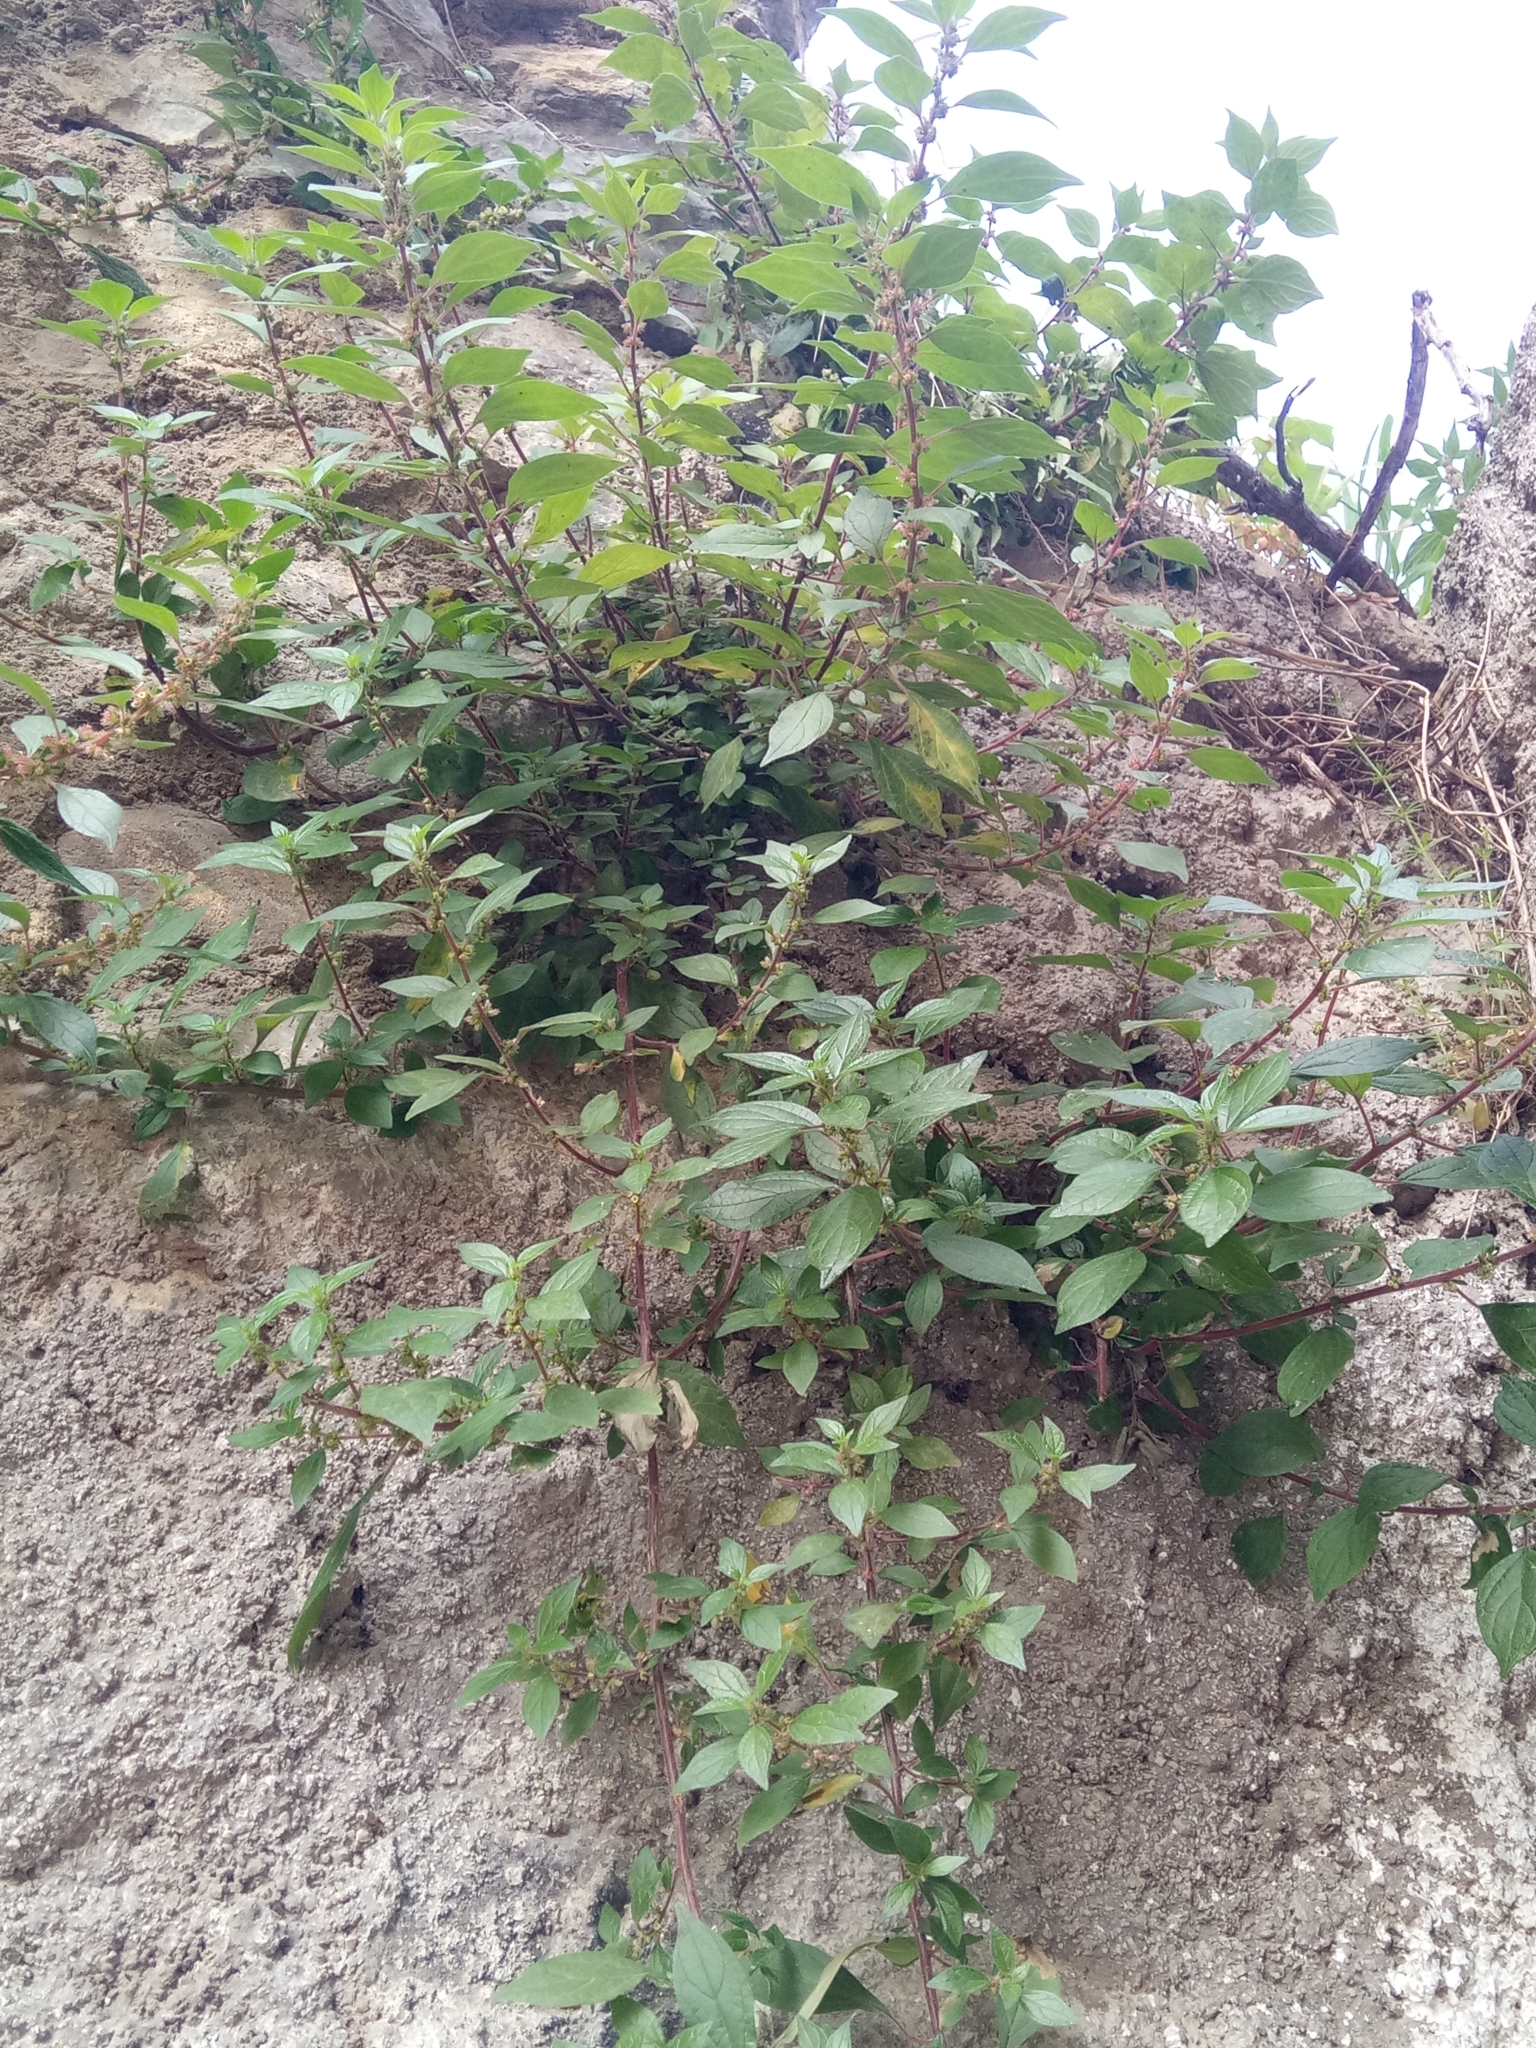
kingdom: Plantae
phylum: Tracheophyta
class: Magnoliopsida
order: Rosales
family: Urticaceae
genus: Parietaria
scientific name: Parietaria judaica
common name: Pellitory-of-the-wall
